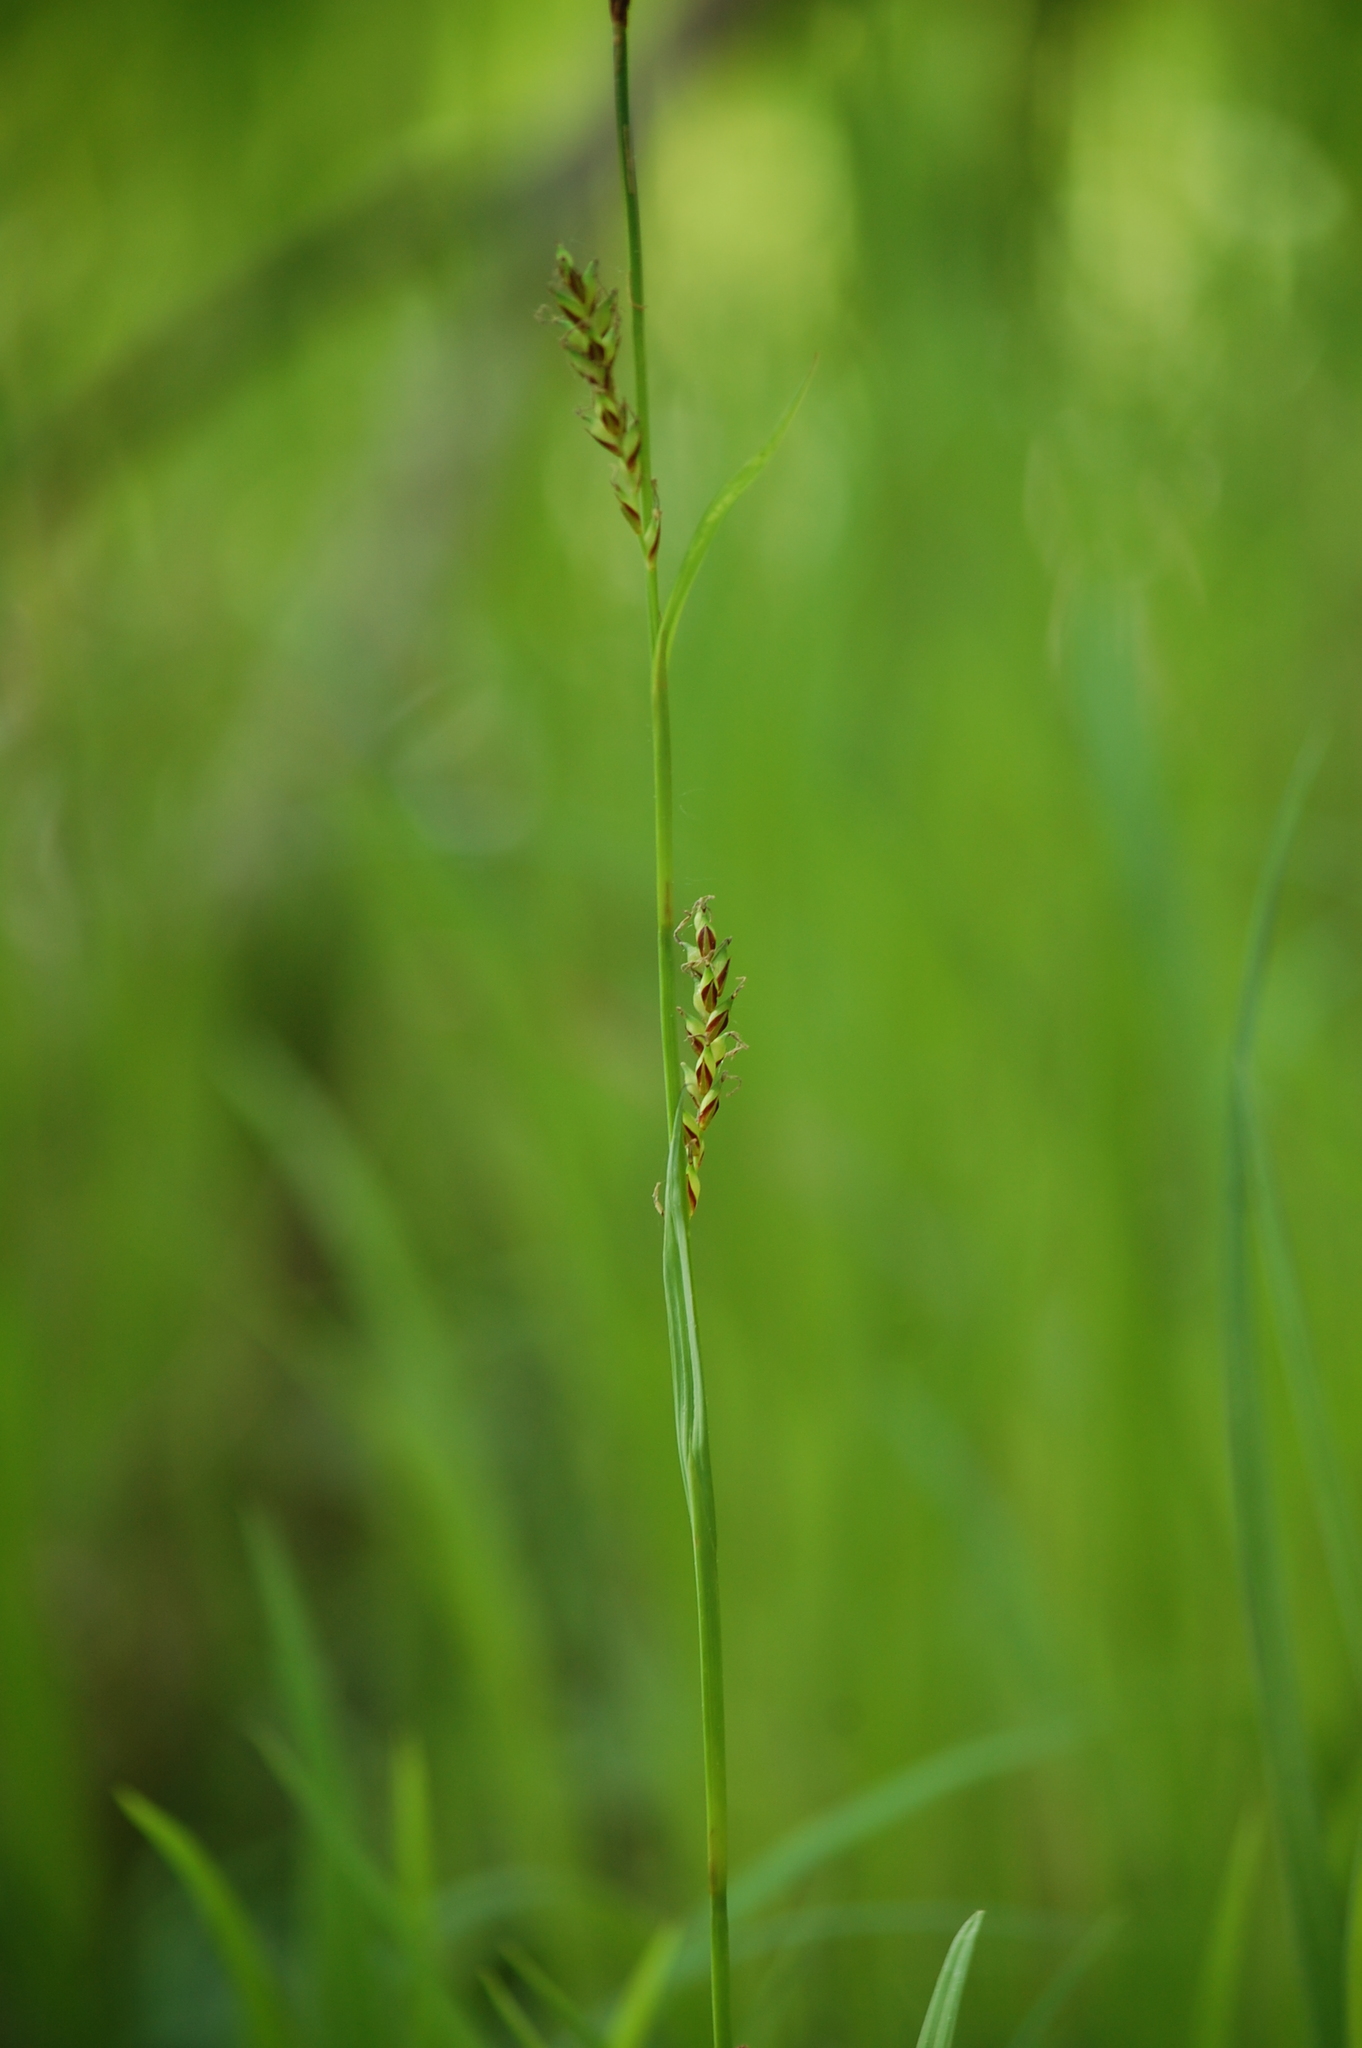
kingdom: Plantae
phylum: Tracheophyta
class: Liliopsida
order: Poales
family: Cyperaceae
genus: Carex
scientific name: Carex pilosa
